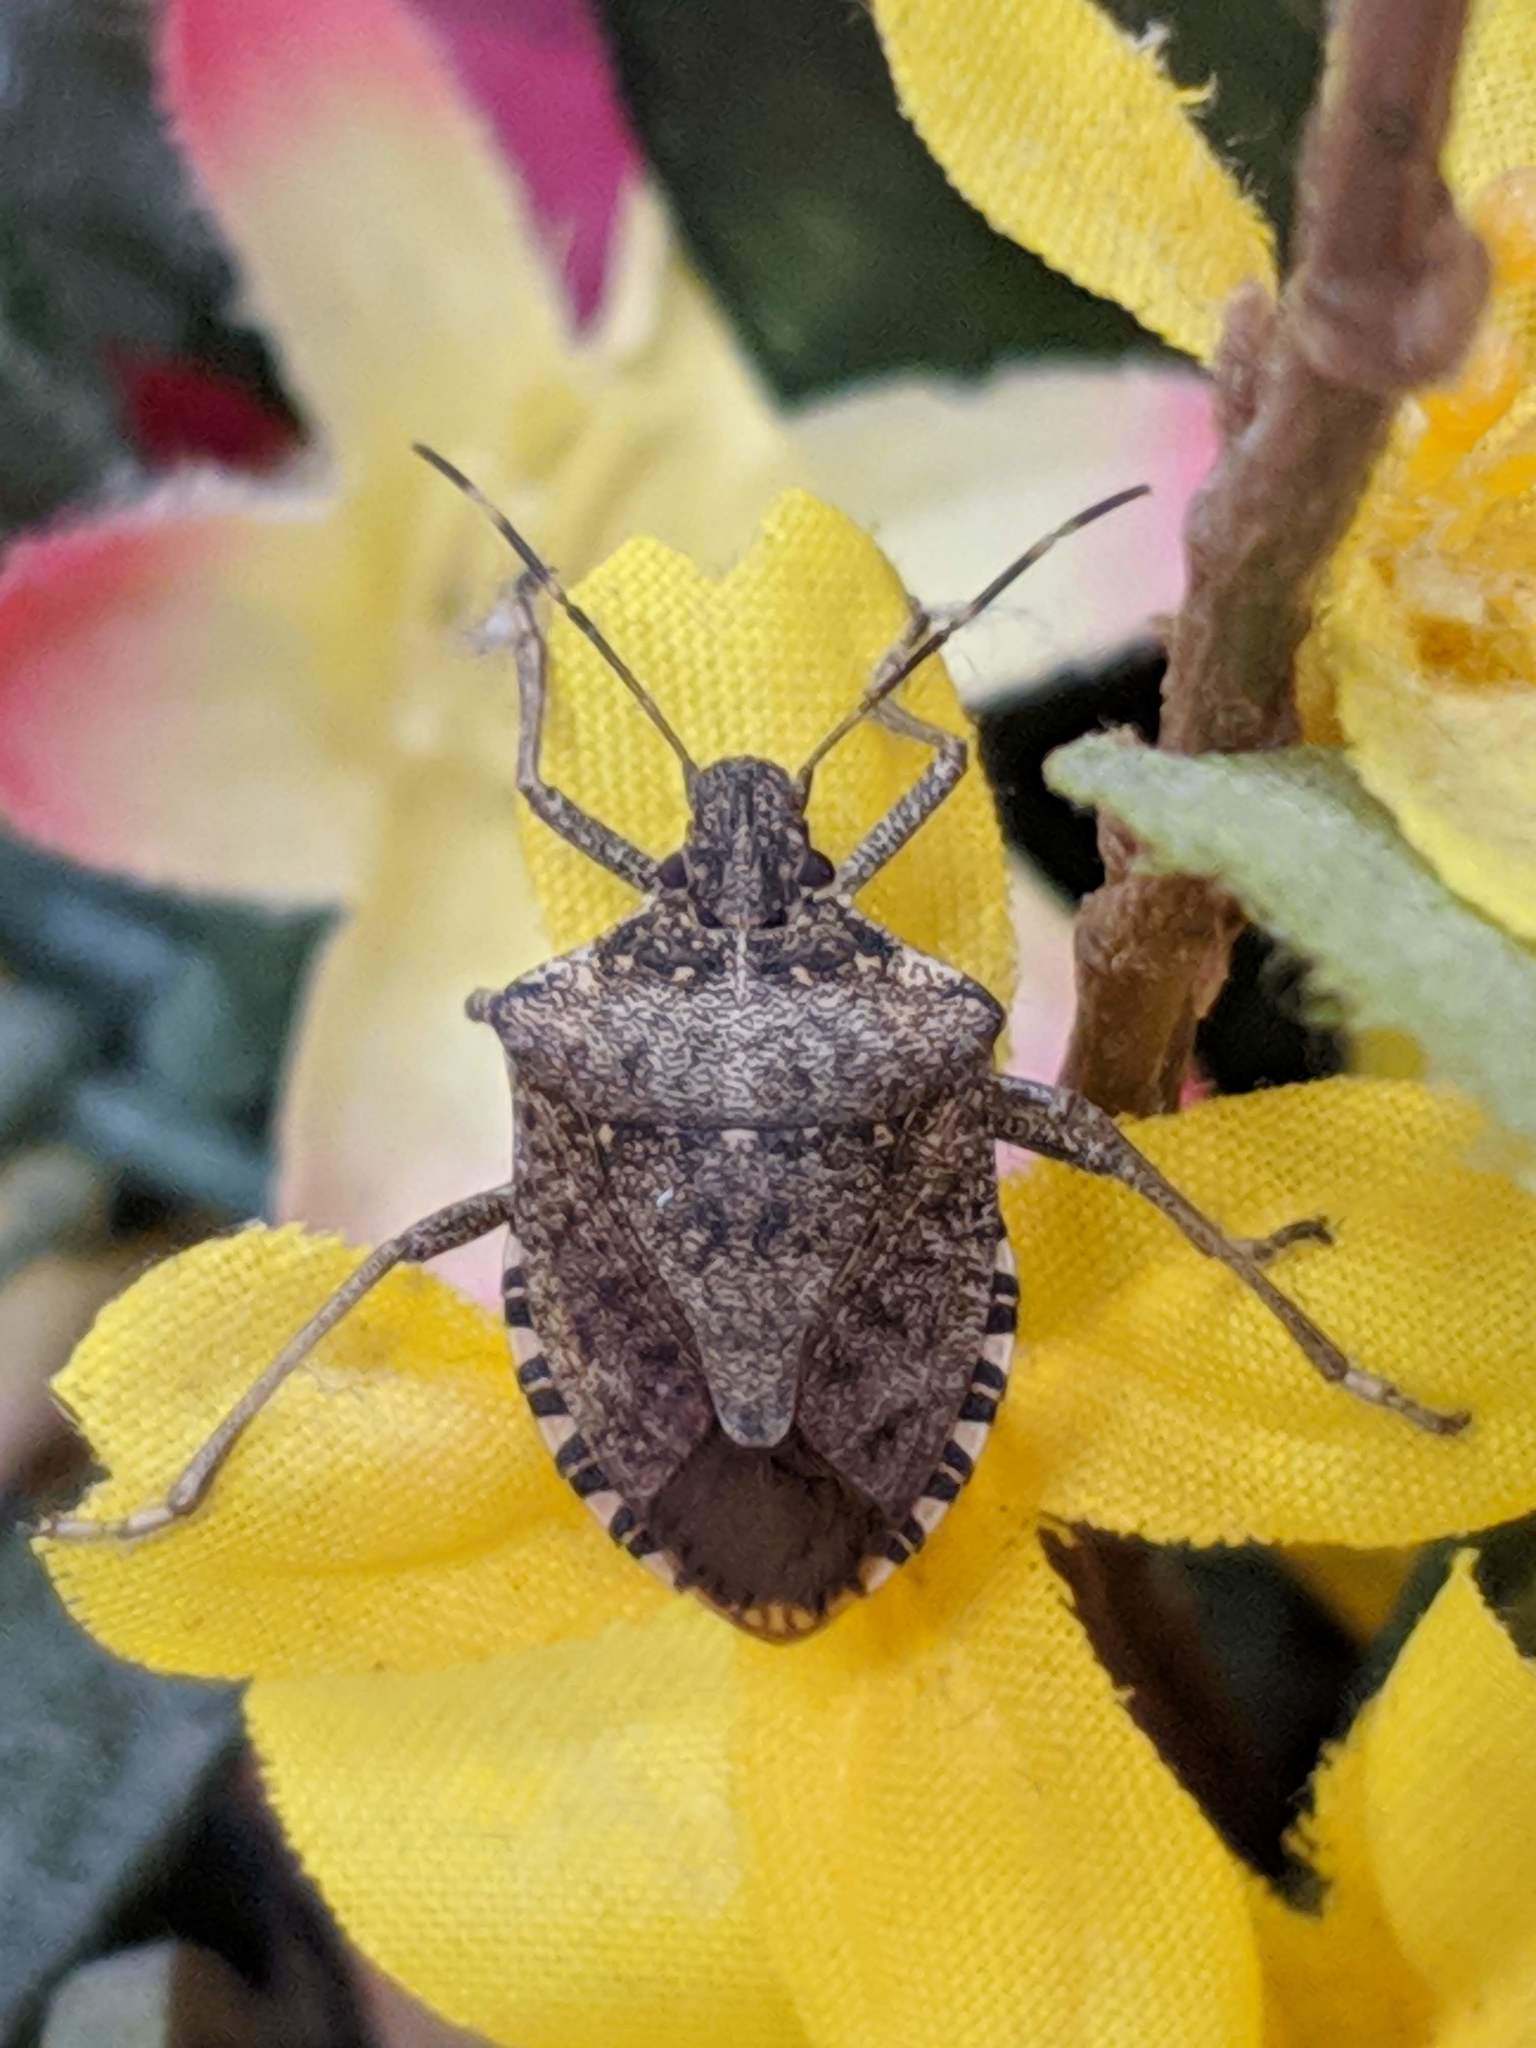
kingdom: Animalia
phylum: Arthropoda
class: Insecta
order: Hemiptera
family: Pentatomidae
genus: Halyomorpha
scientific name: Halyomorpha halys
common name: Brown marmorated stink bug
